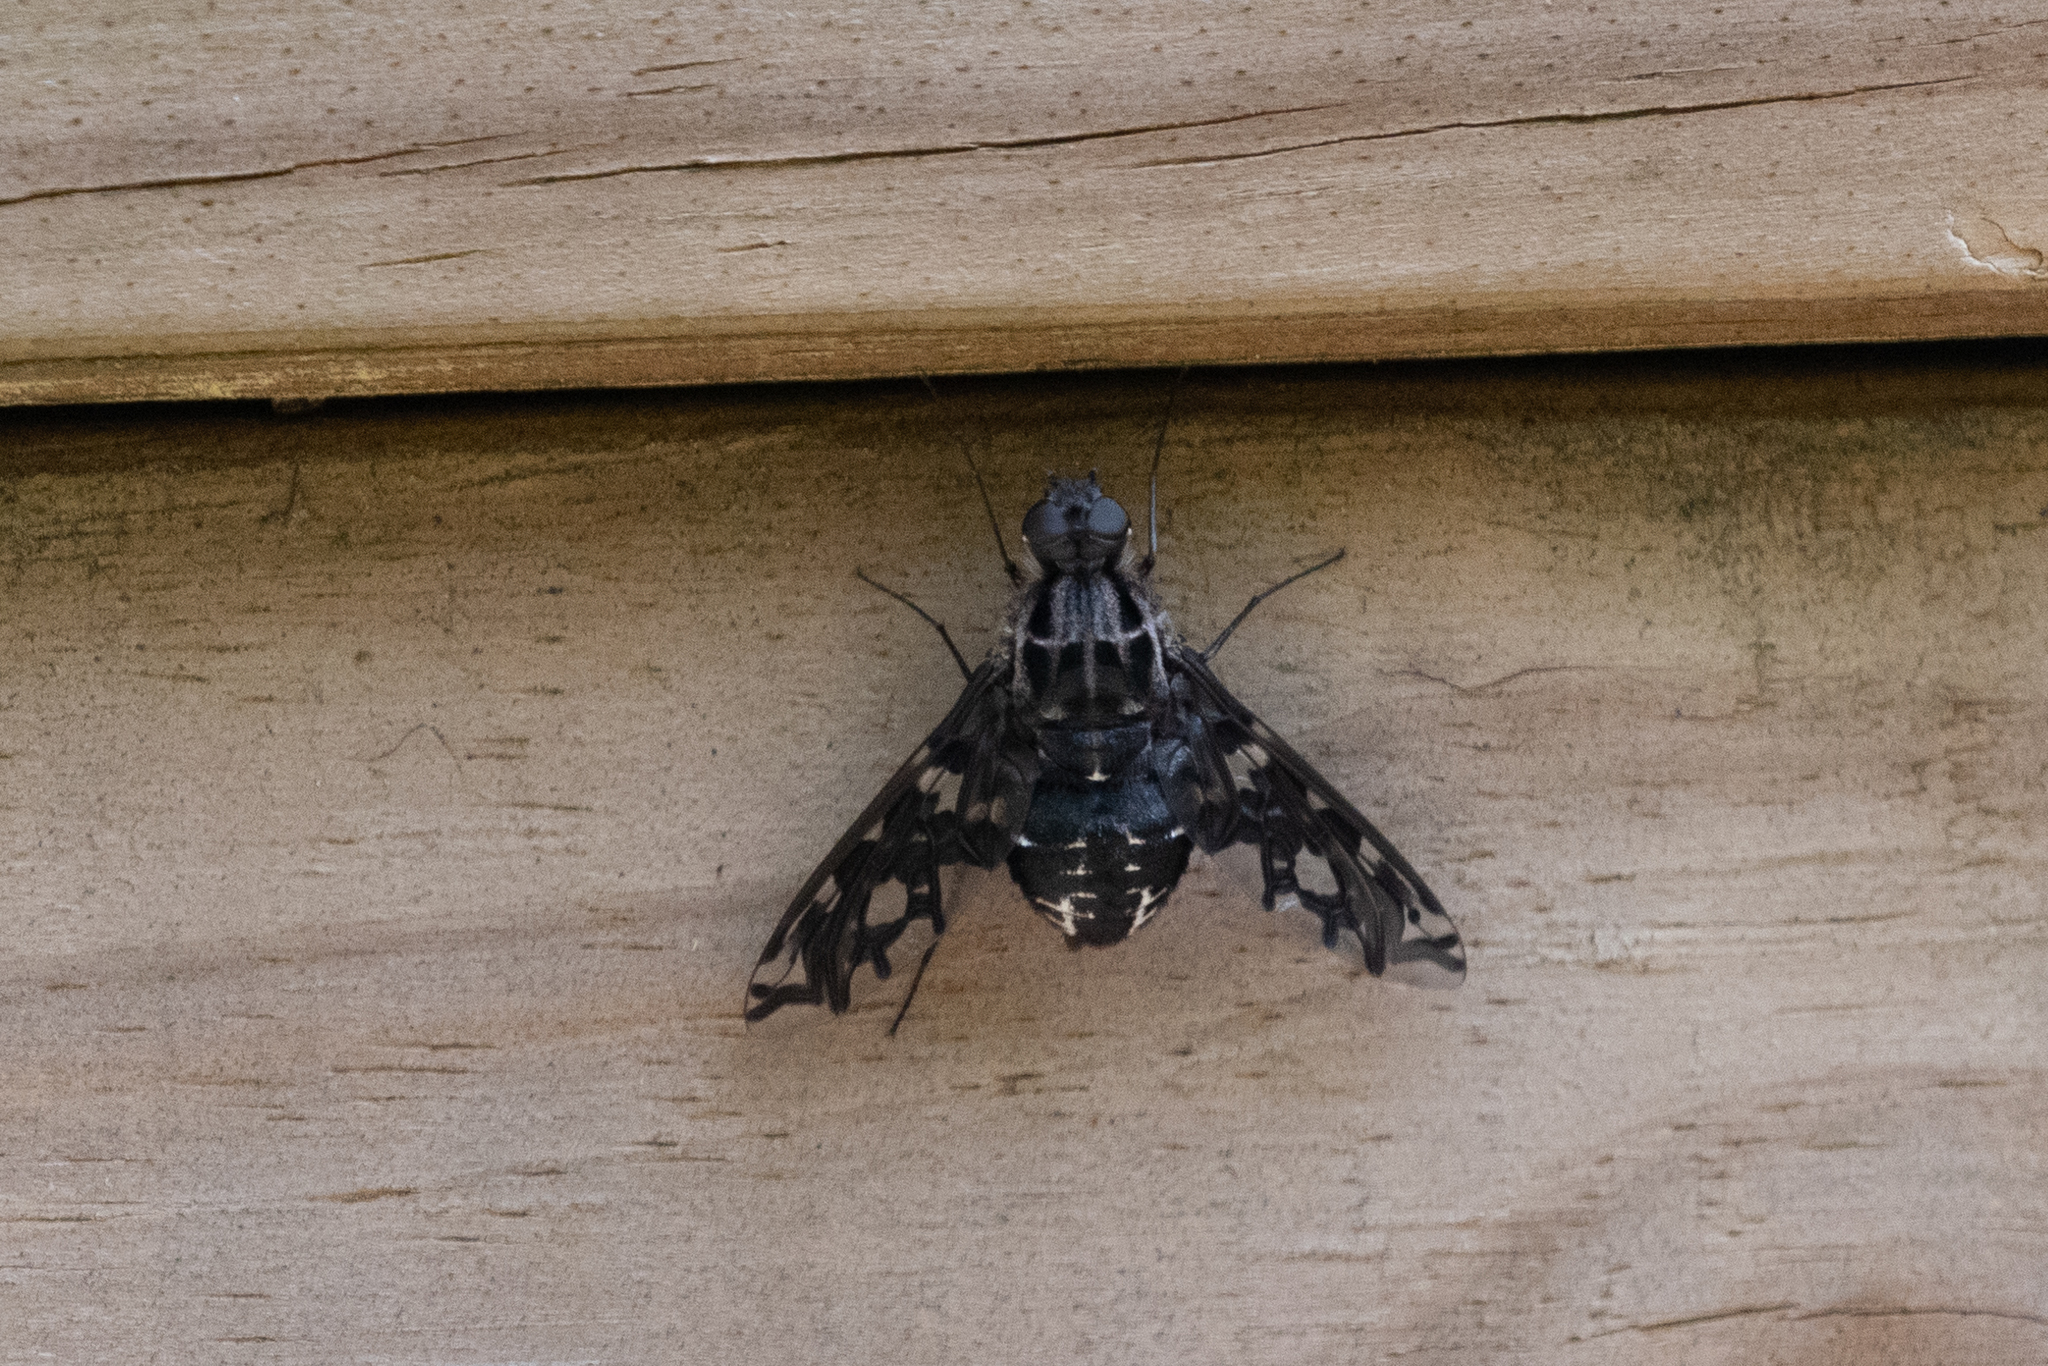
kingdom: Animalia
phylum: Arthropoda
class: Insecta
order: Diptera
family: Bombyliidae
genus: Xenox
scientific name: Xenox tigrinus
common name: Tiger bee fly
